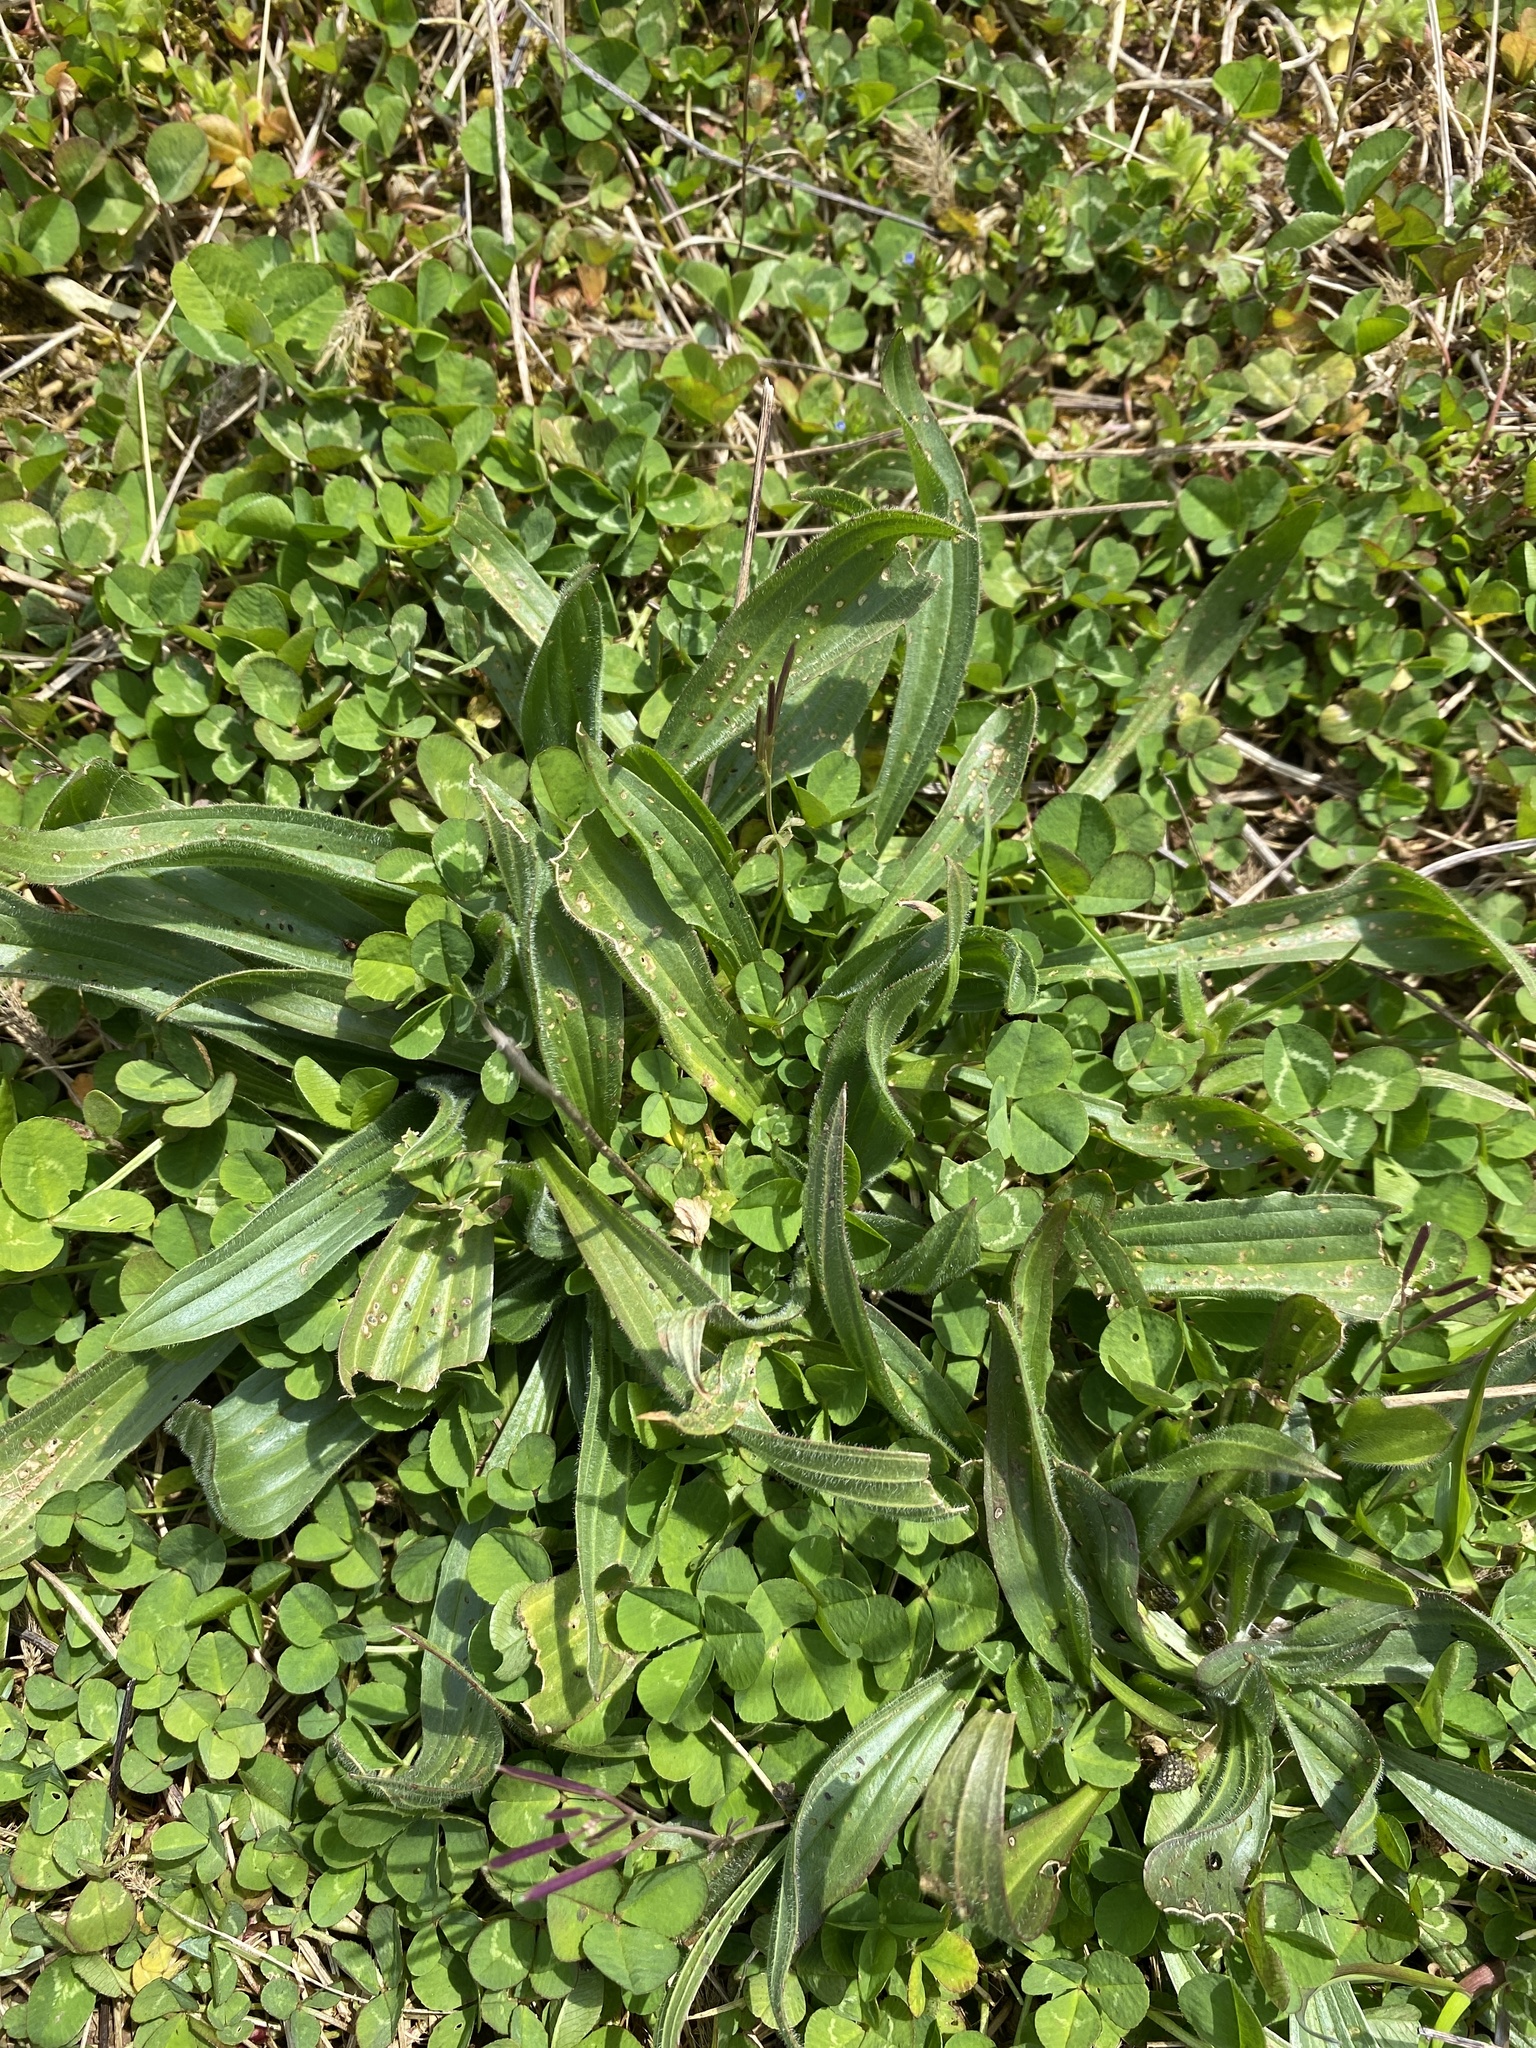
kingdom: Plantae
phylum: Tracheophyta
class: Magnoliopsida
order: Lamiales
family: Plantaginaceae
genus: Plantago
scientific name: Plantago lanceolata
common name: Ribwort plantain
